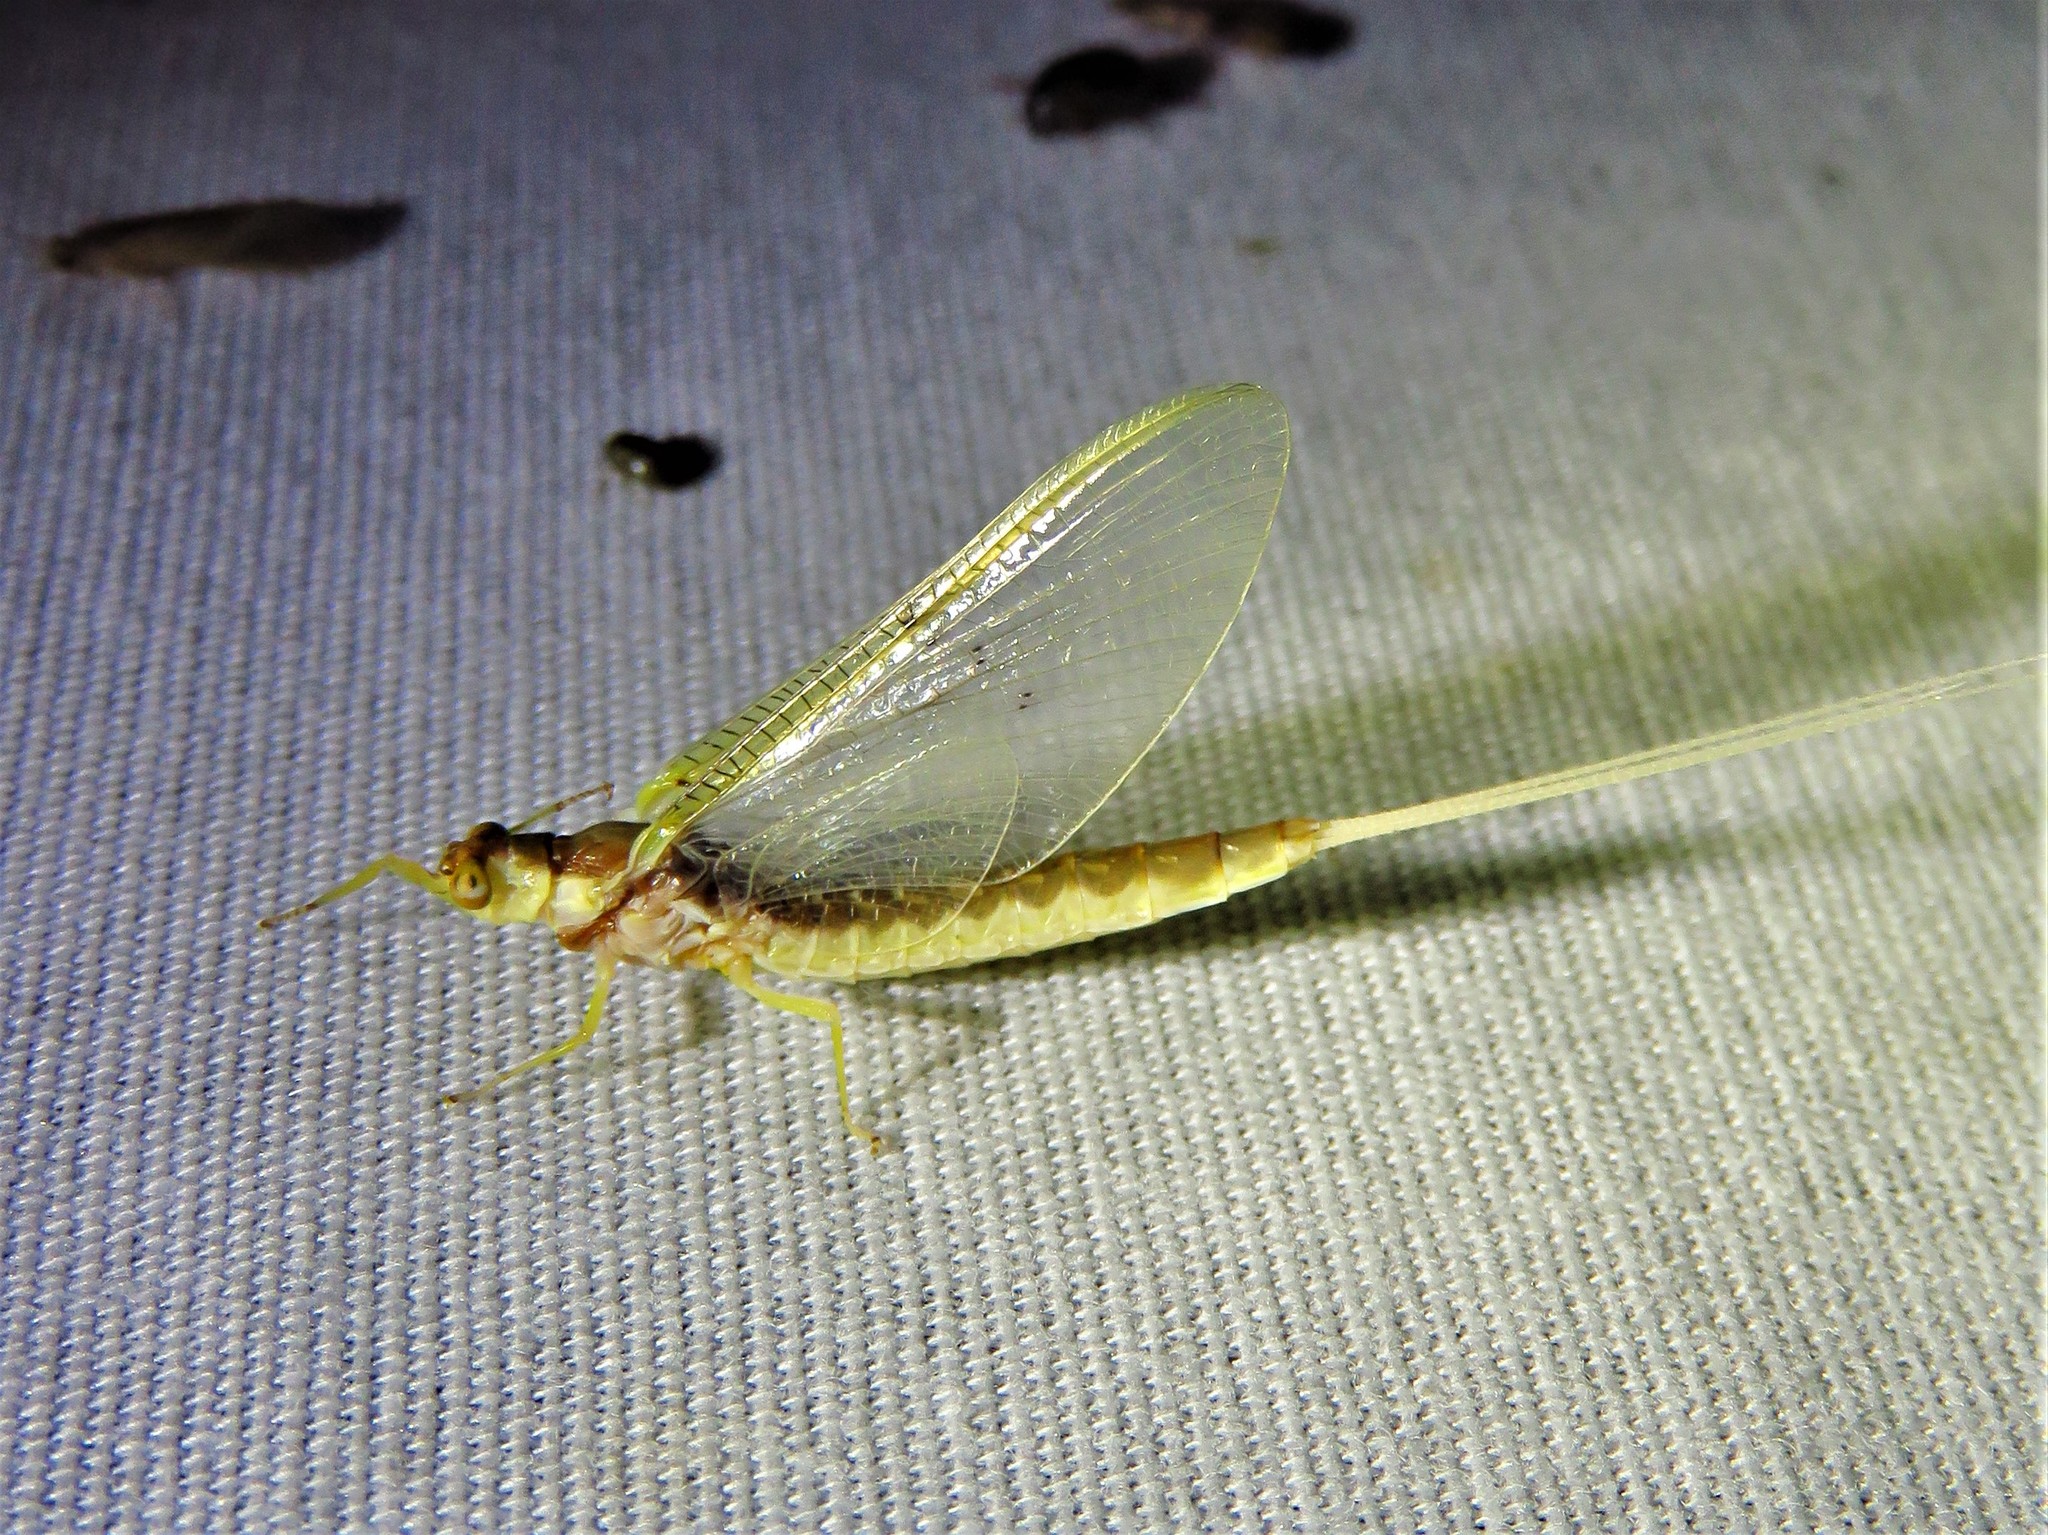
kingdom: Animalia
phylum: Arthropoda
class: Insecta
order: Ephemeroptera
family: Ephemeridae
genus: Pentagenia
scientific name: Pentagenia vittigera
